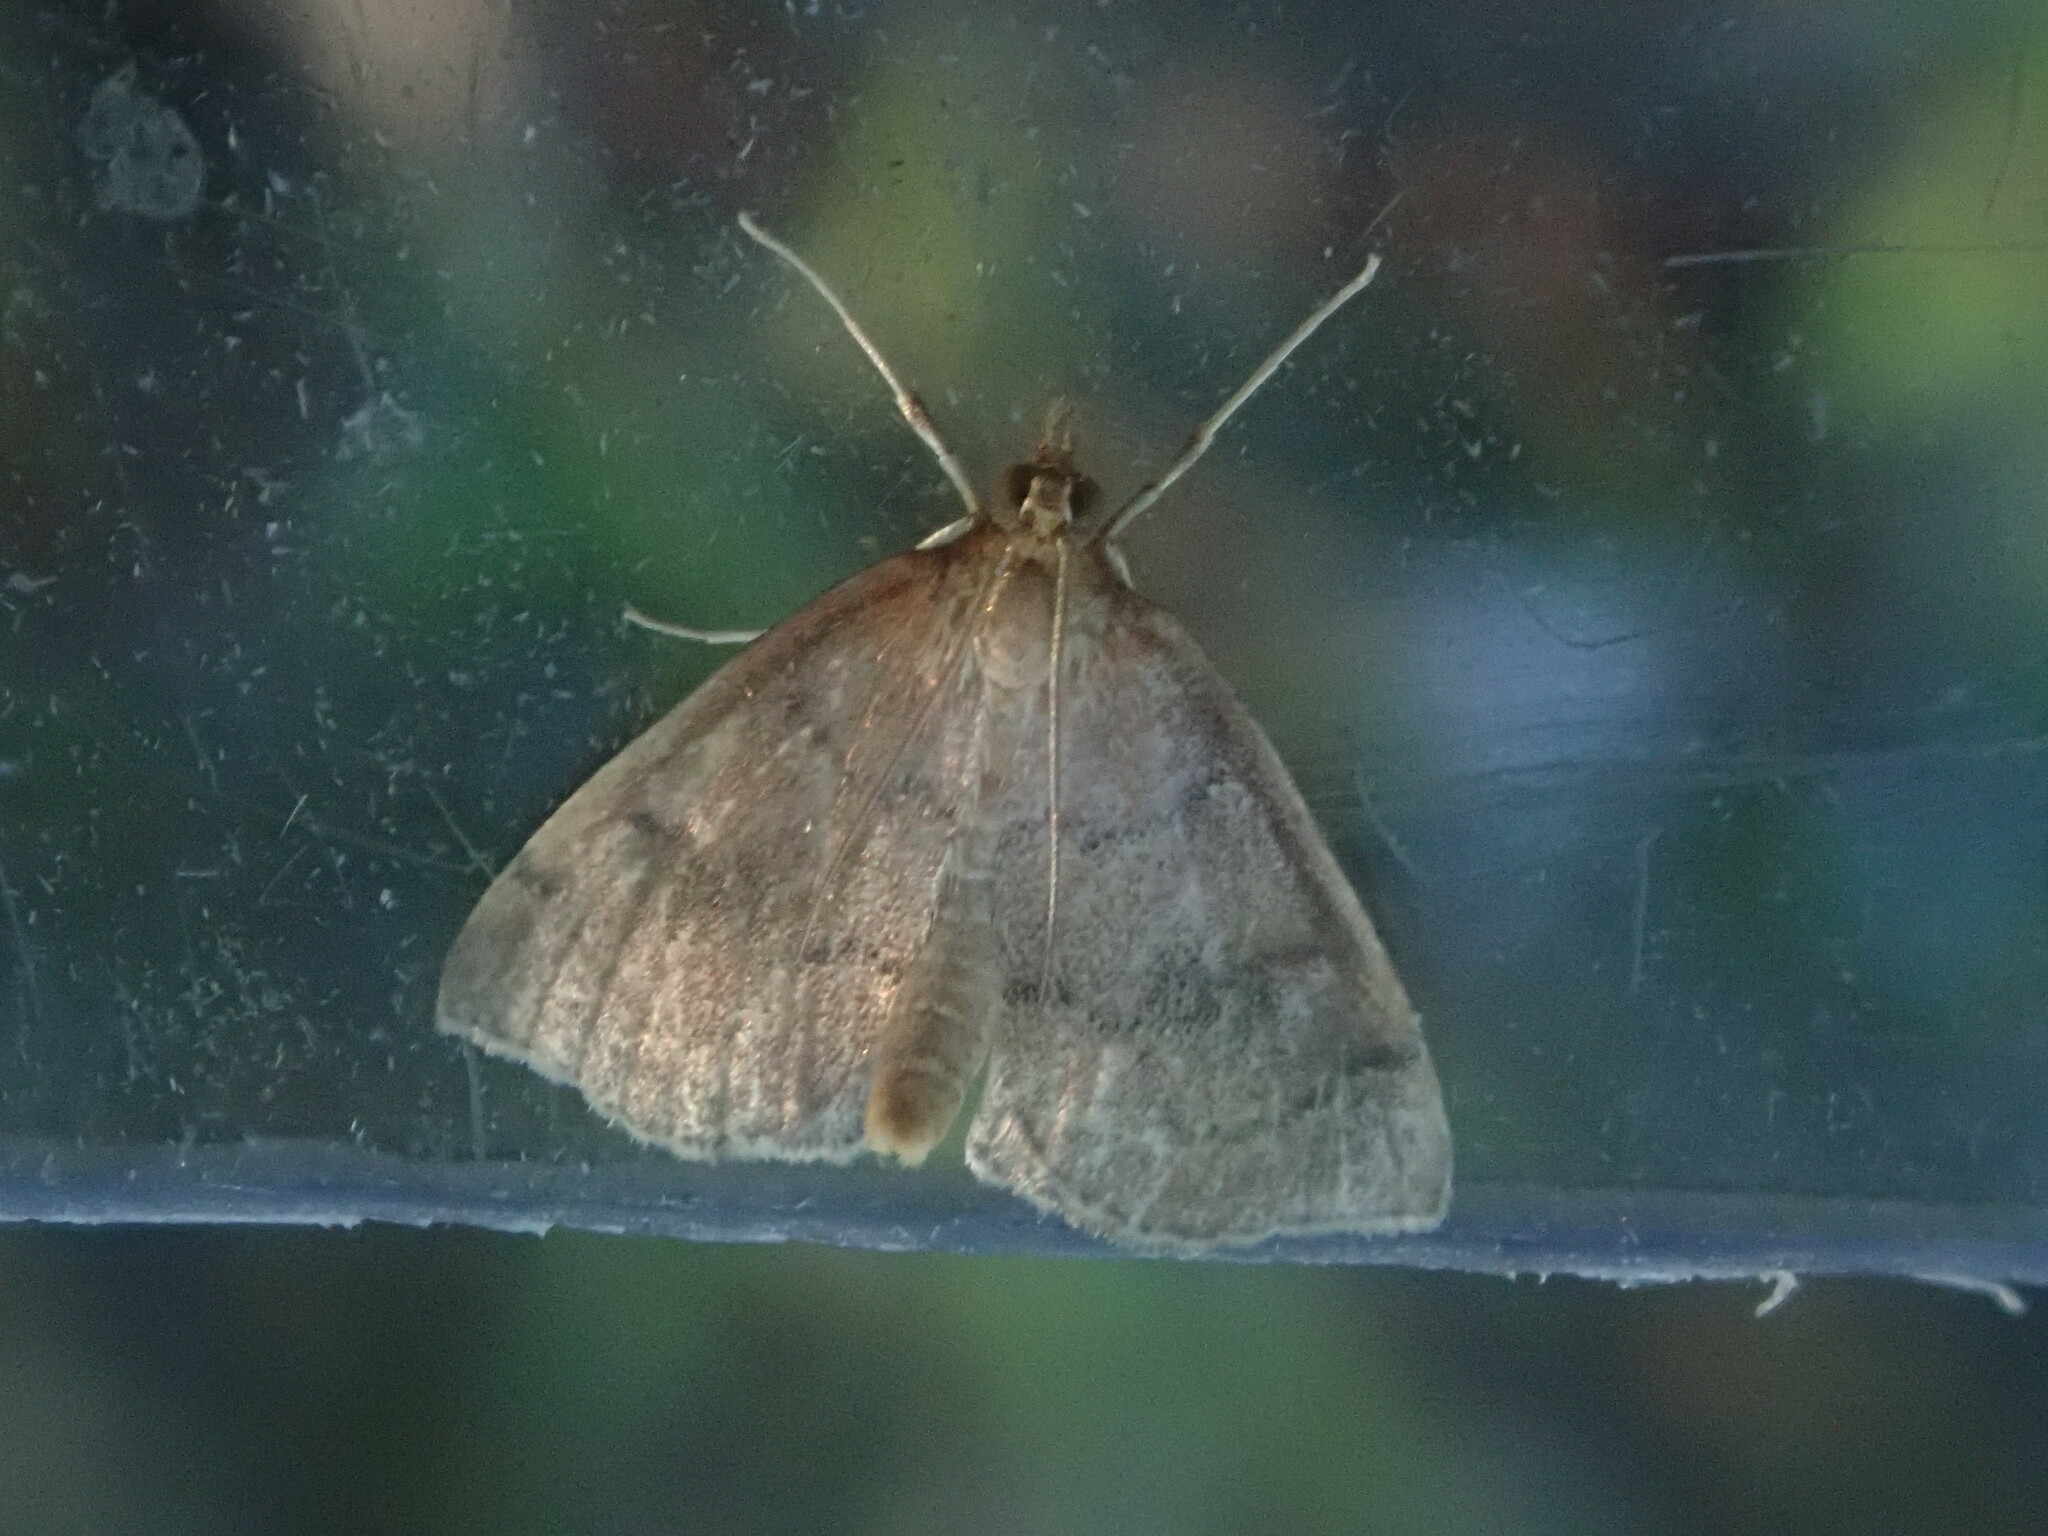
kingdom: Animalia
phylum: Arthropoda
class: Insecta
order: Lepidoptera
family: Crambidae
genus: Fumibotys
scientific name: Fumibotys fumalis
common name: Mint root borer moth
